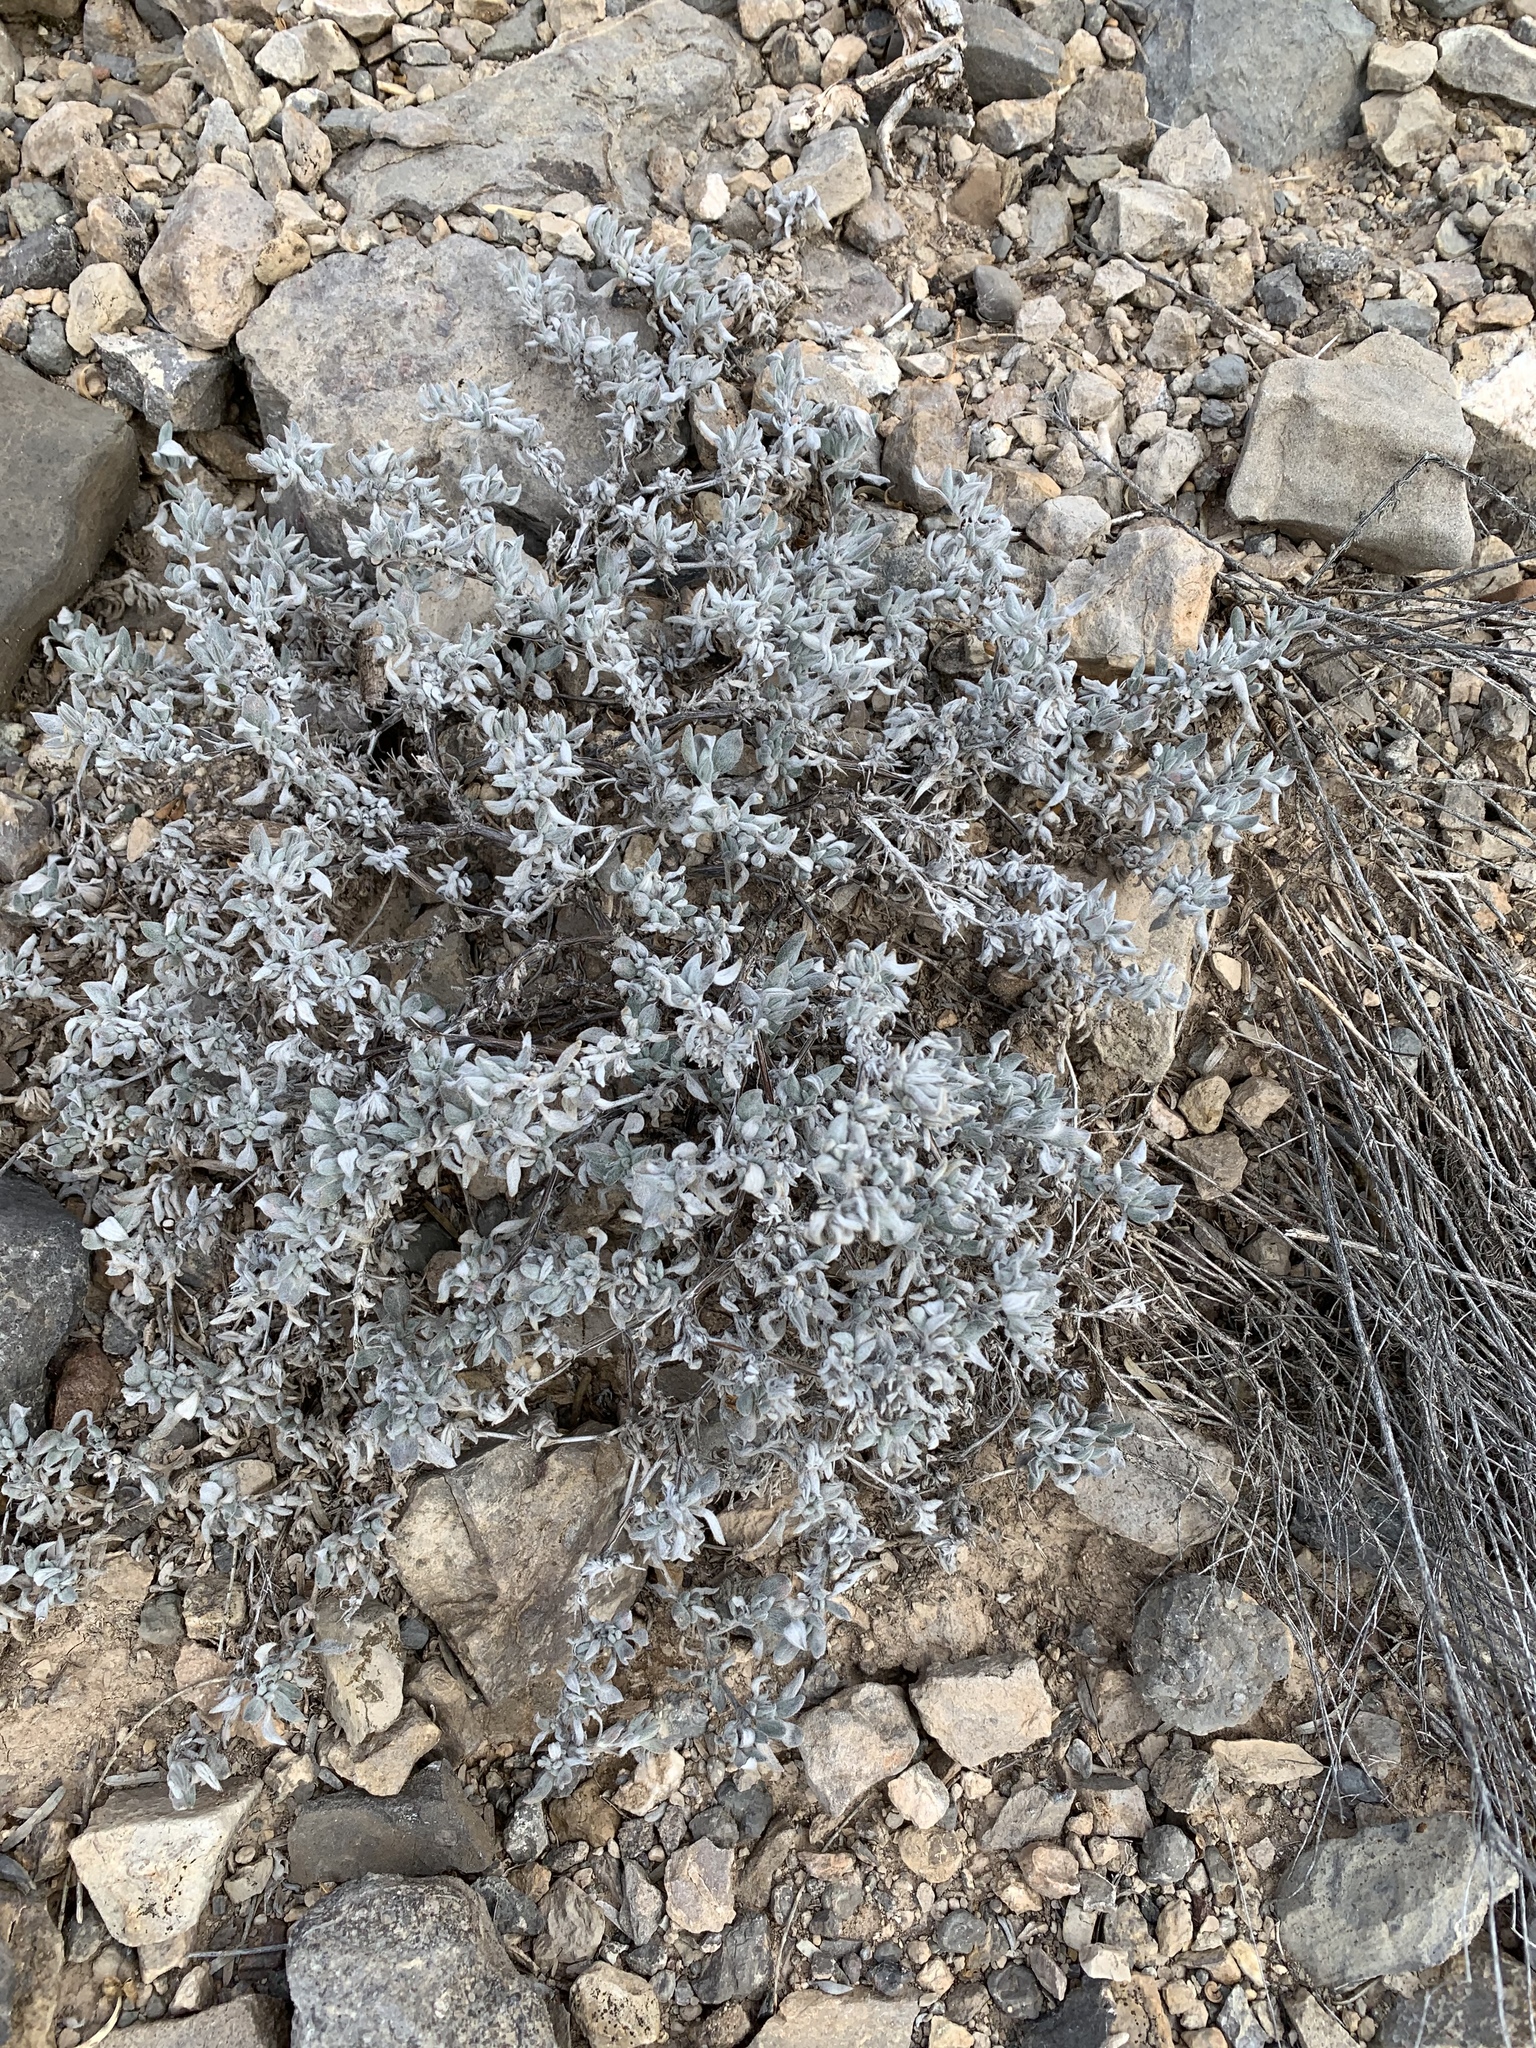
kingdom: Plantae
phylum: Tracheophyta
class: Magnoliopsida
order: Boraginales
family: Ehretiaceae
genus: Tiquilia
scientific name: Tiquilia canescens
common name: Hairy tiquilia
